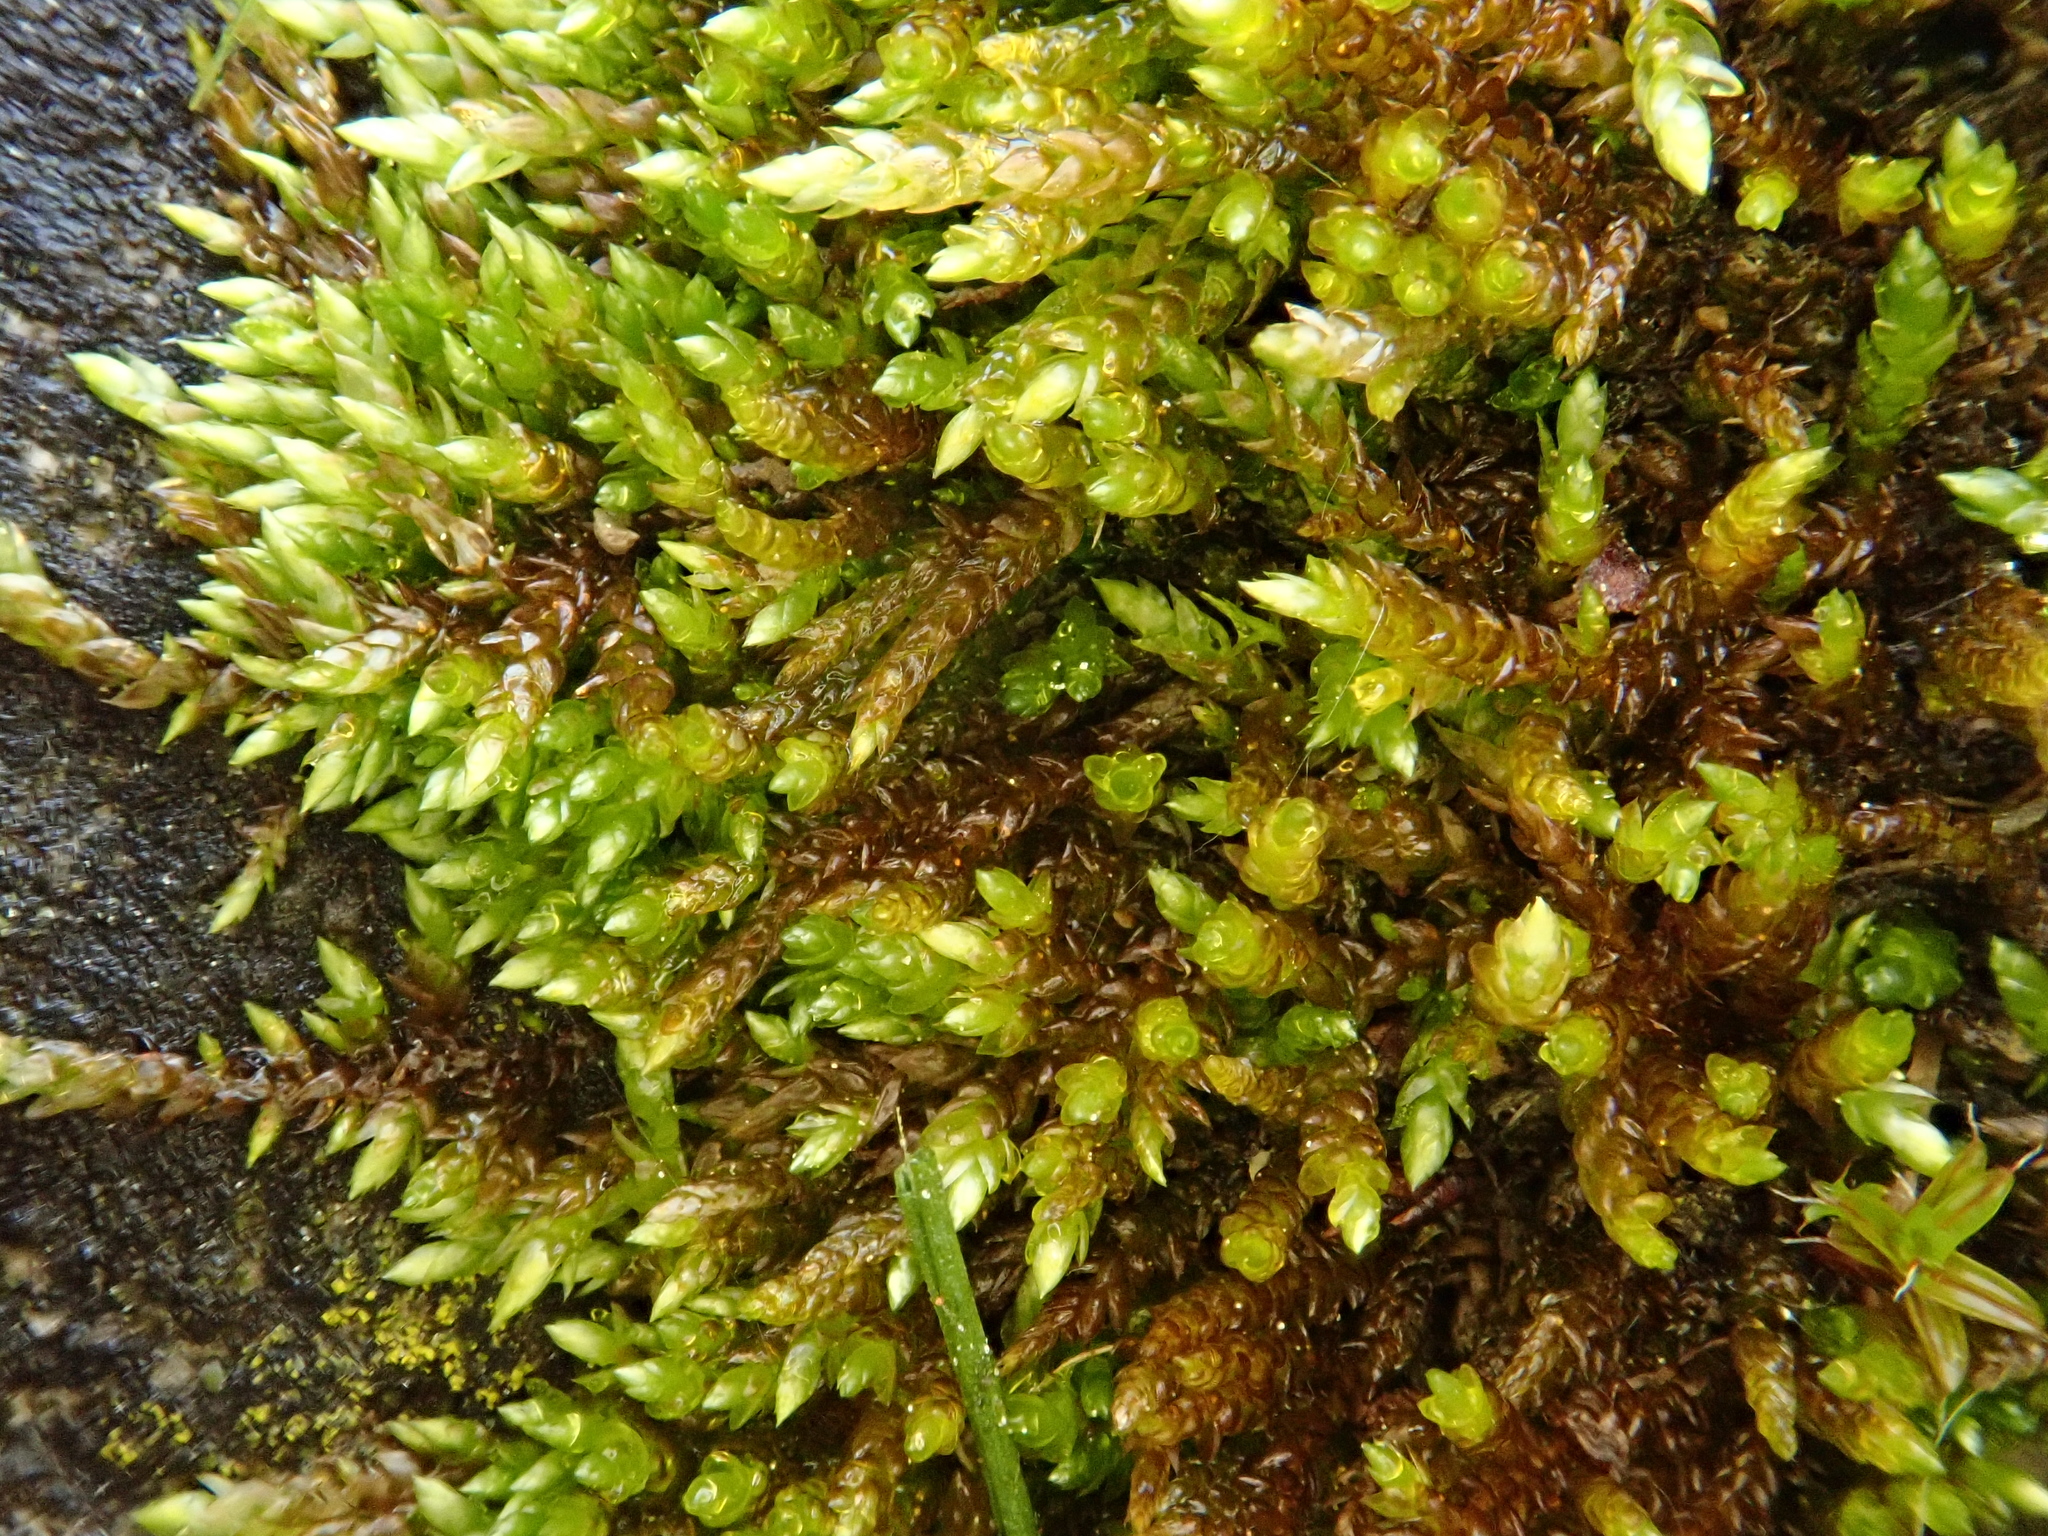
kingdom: Plantae
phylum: Bryophyta
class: Bryopsida
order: Hypnales
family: Brachytheciaceae
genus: Rhynchostegium
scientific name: Rhynchostegium murale
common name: Wall feather-moss
